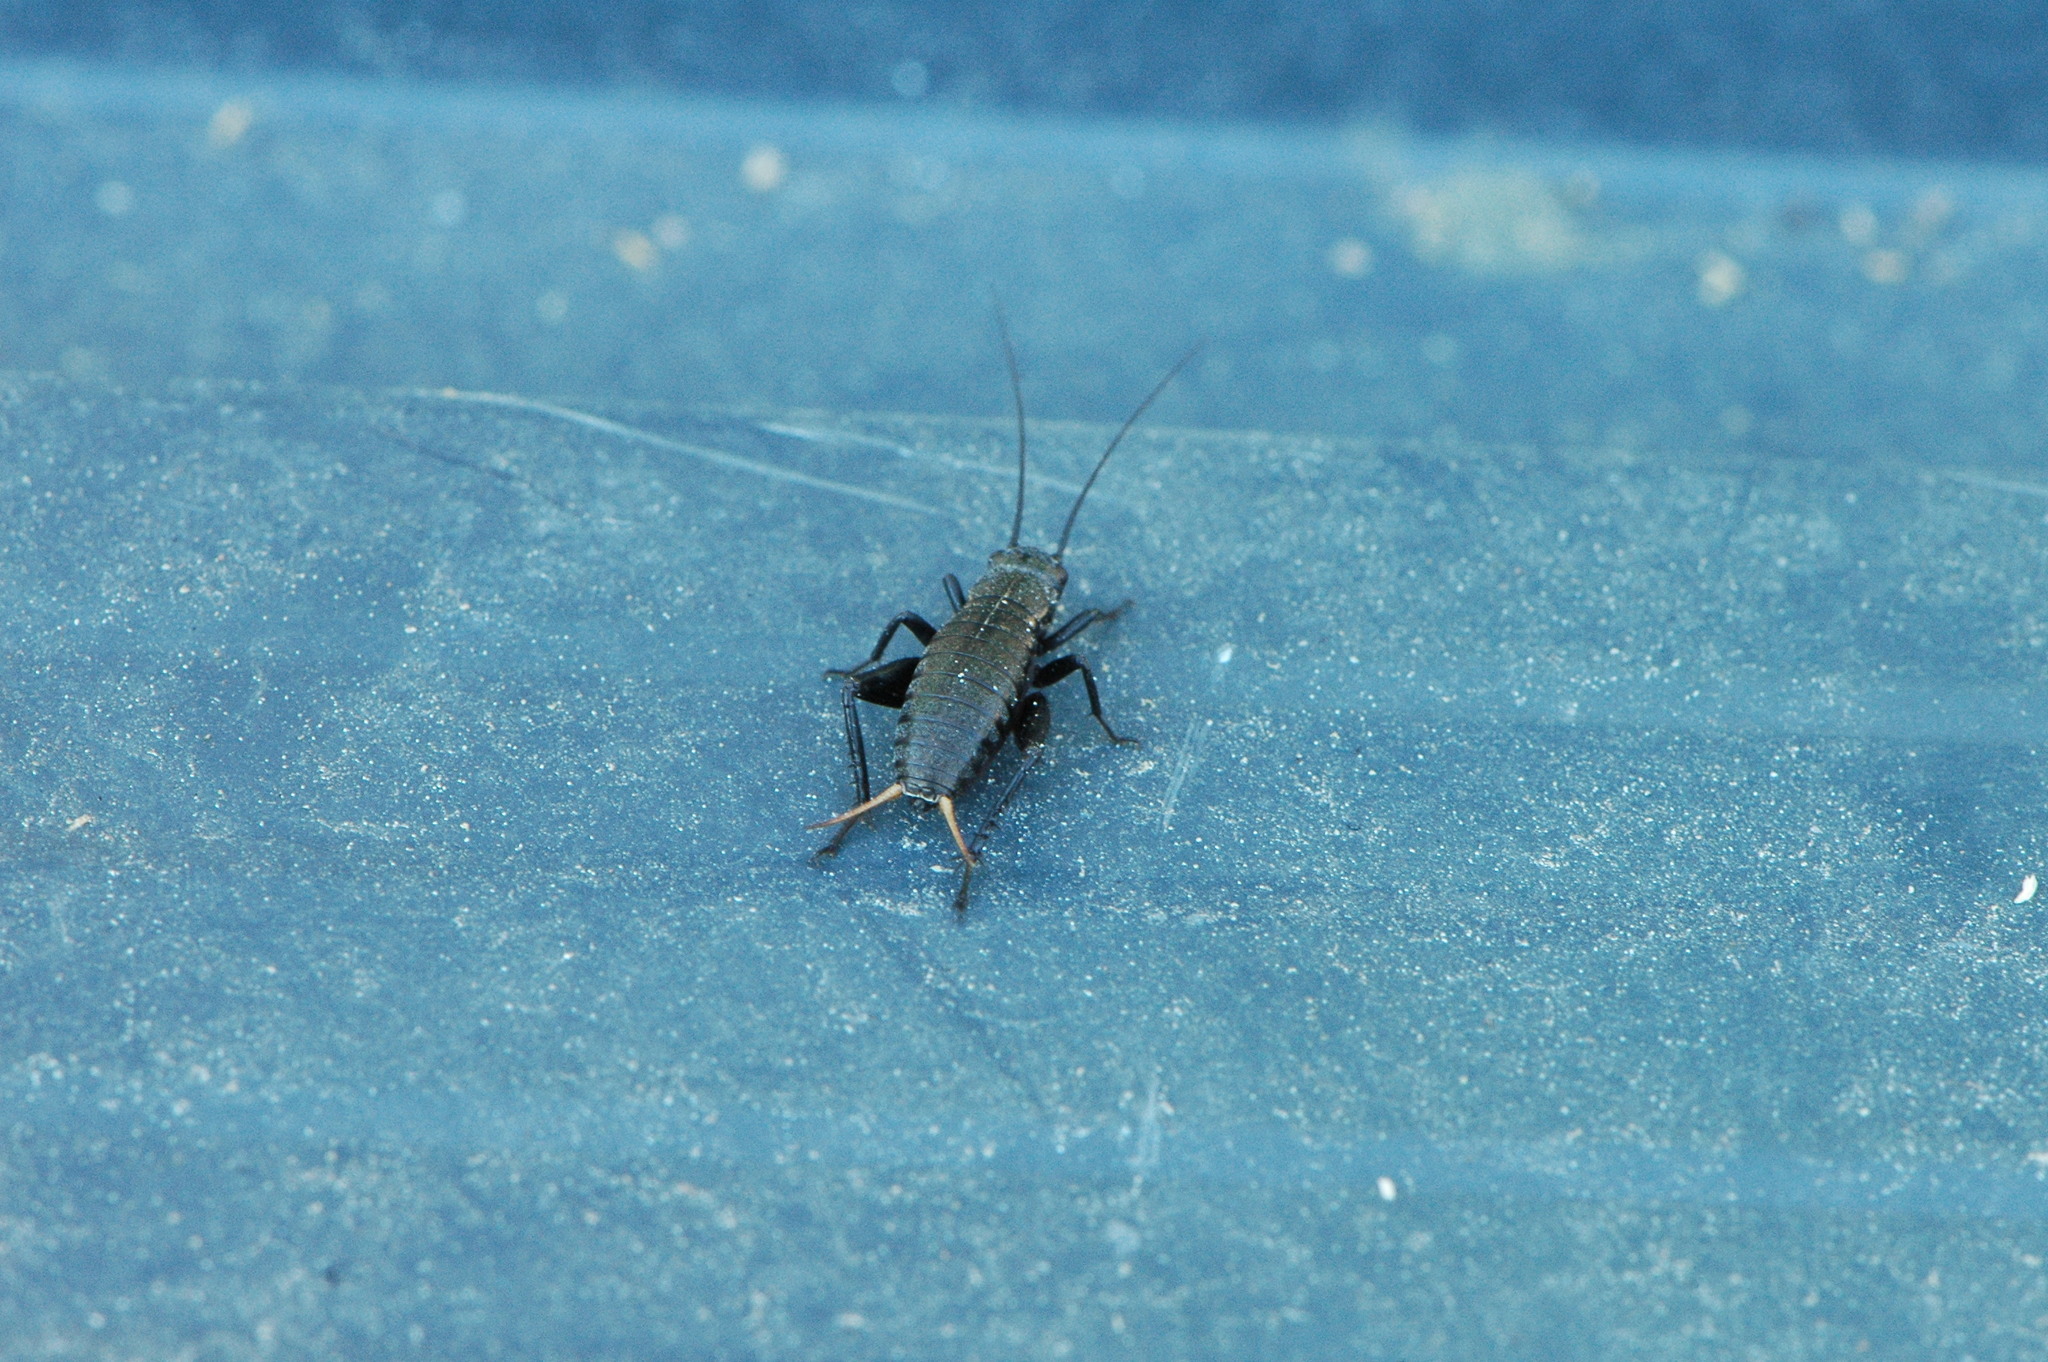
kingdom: Animalia
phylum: Arthropoda
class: Insecta
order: Orthoptera
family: Gryllidae
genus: Gryllus
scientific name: Gryllus bimaculatus
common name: Two-spotted cricket
